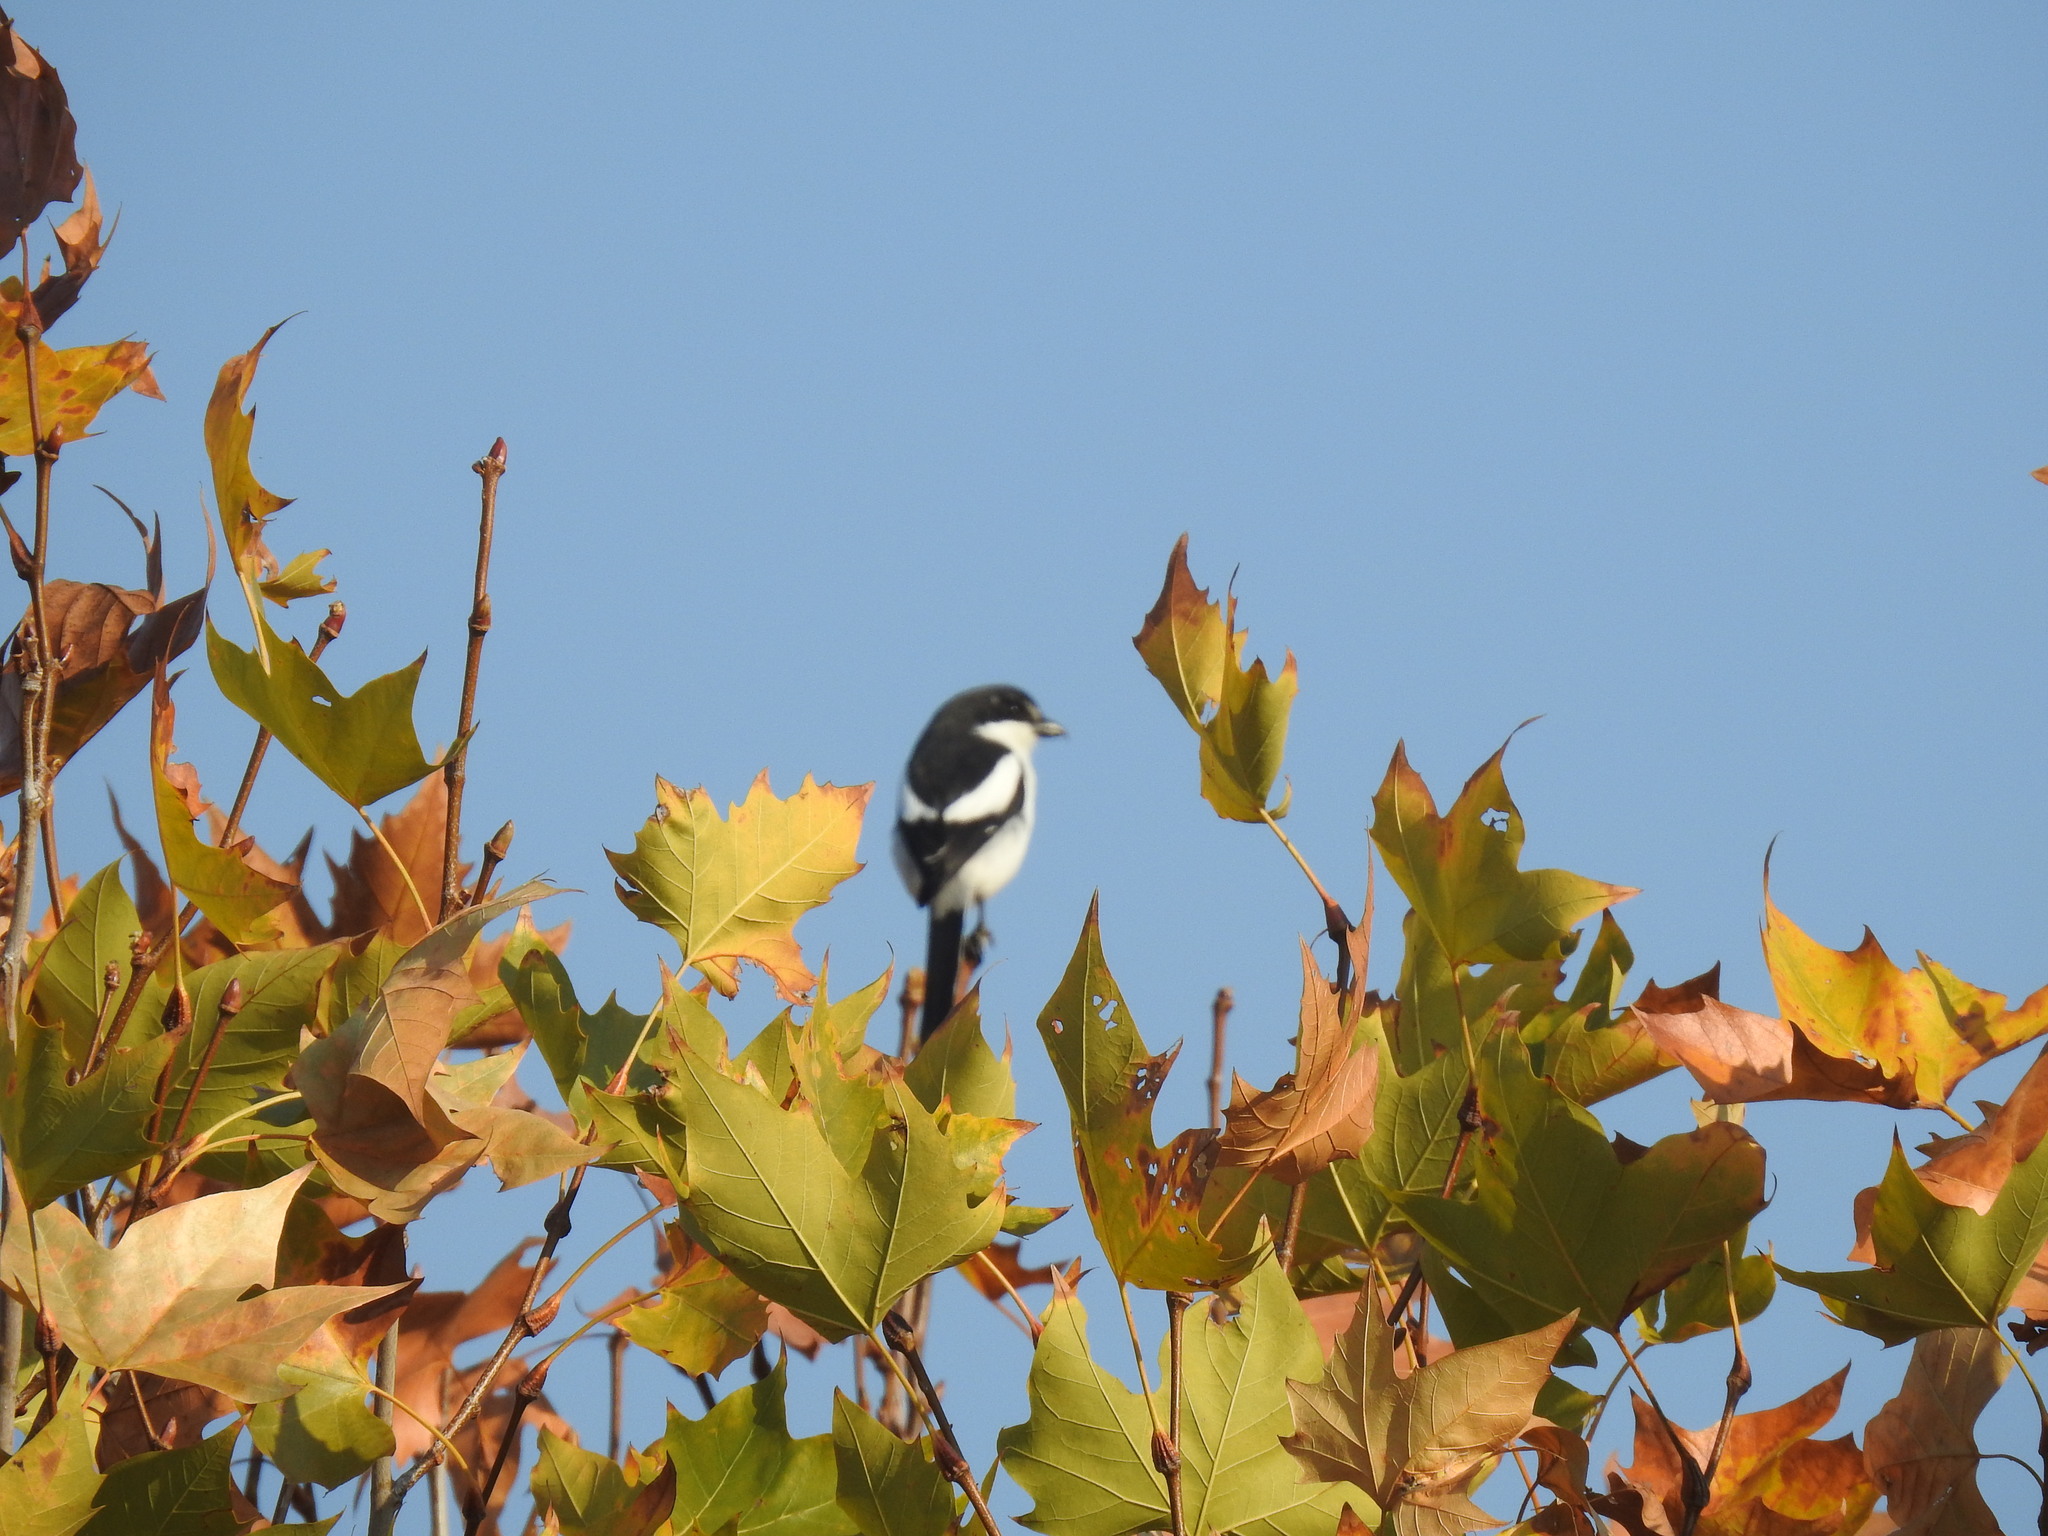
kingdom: Animalia
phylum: Chordata
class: Aves
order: Passeriformes
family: Laniidae
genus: Lanius
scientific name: Lanius collaris
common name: Southern fiscal
